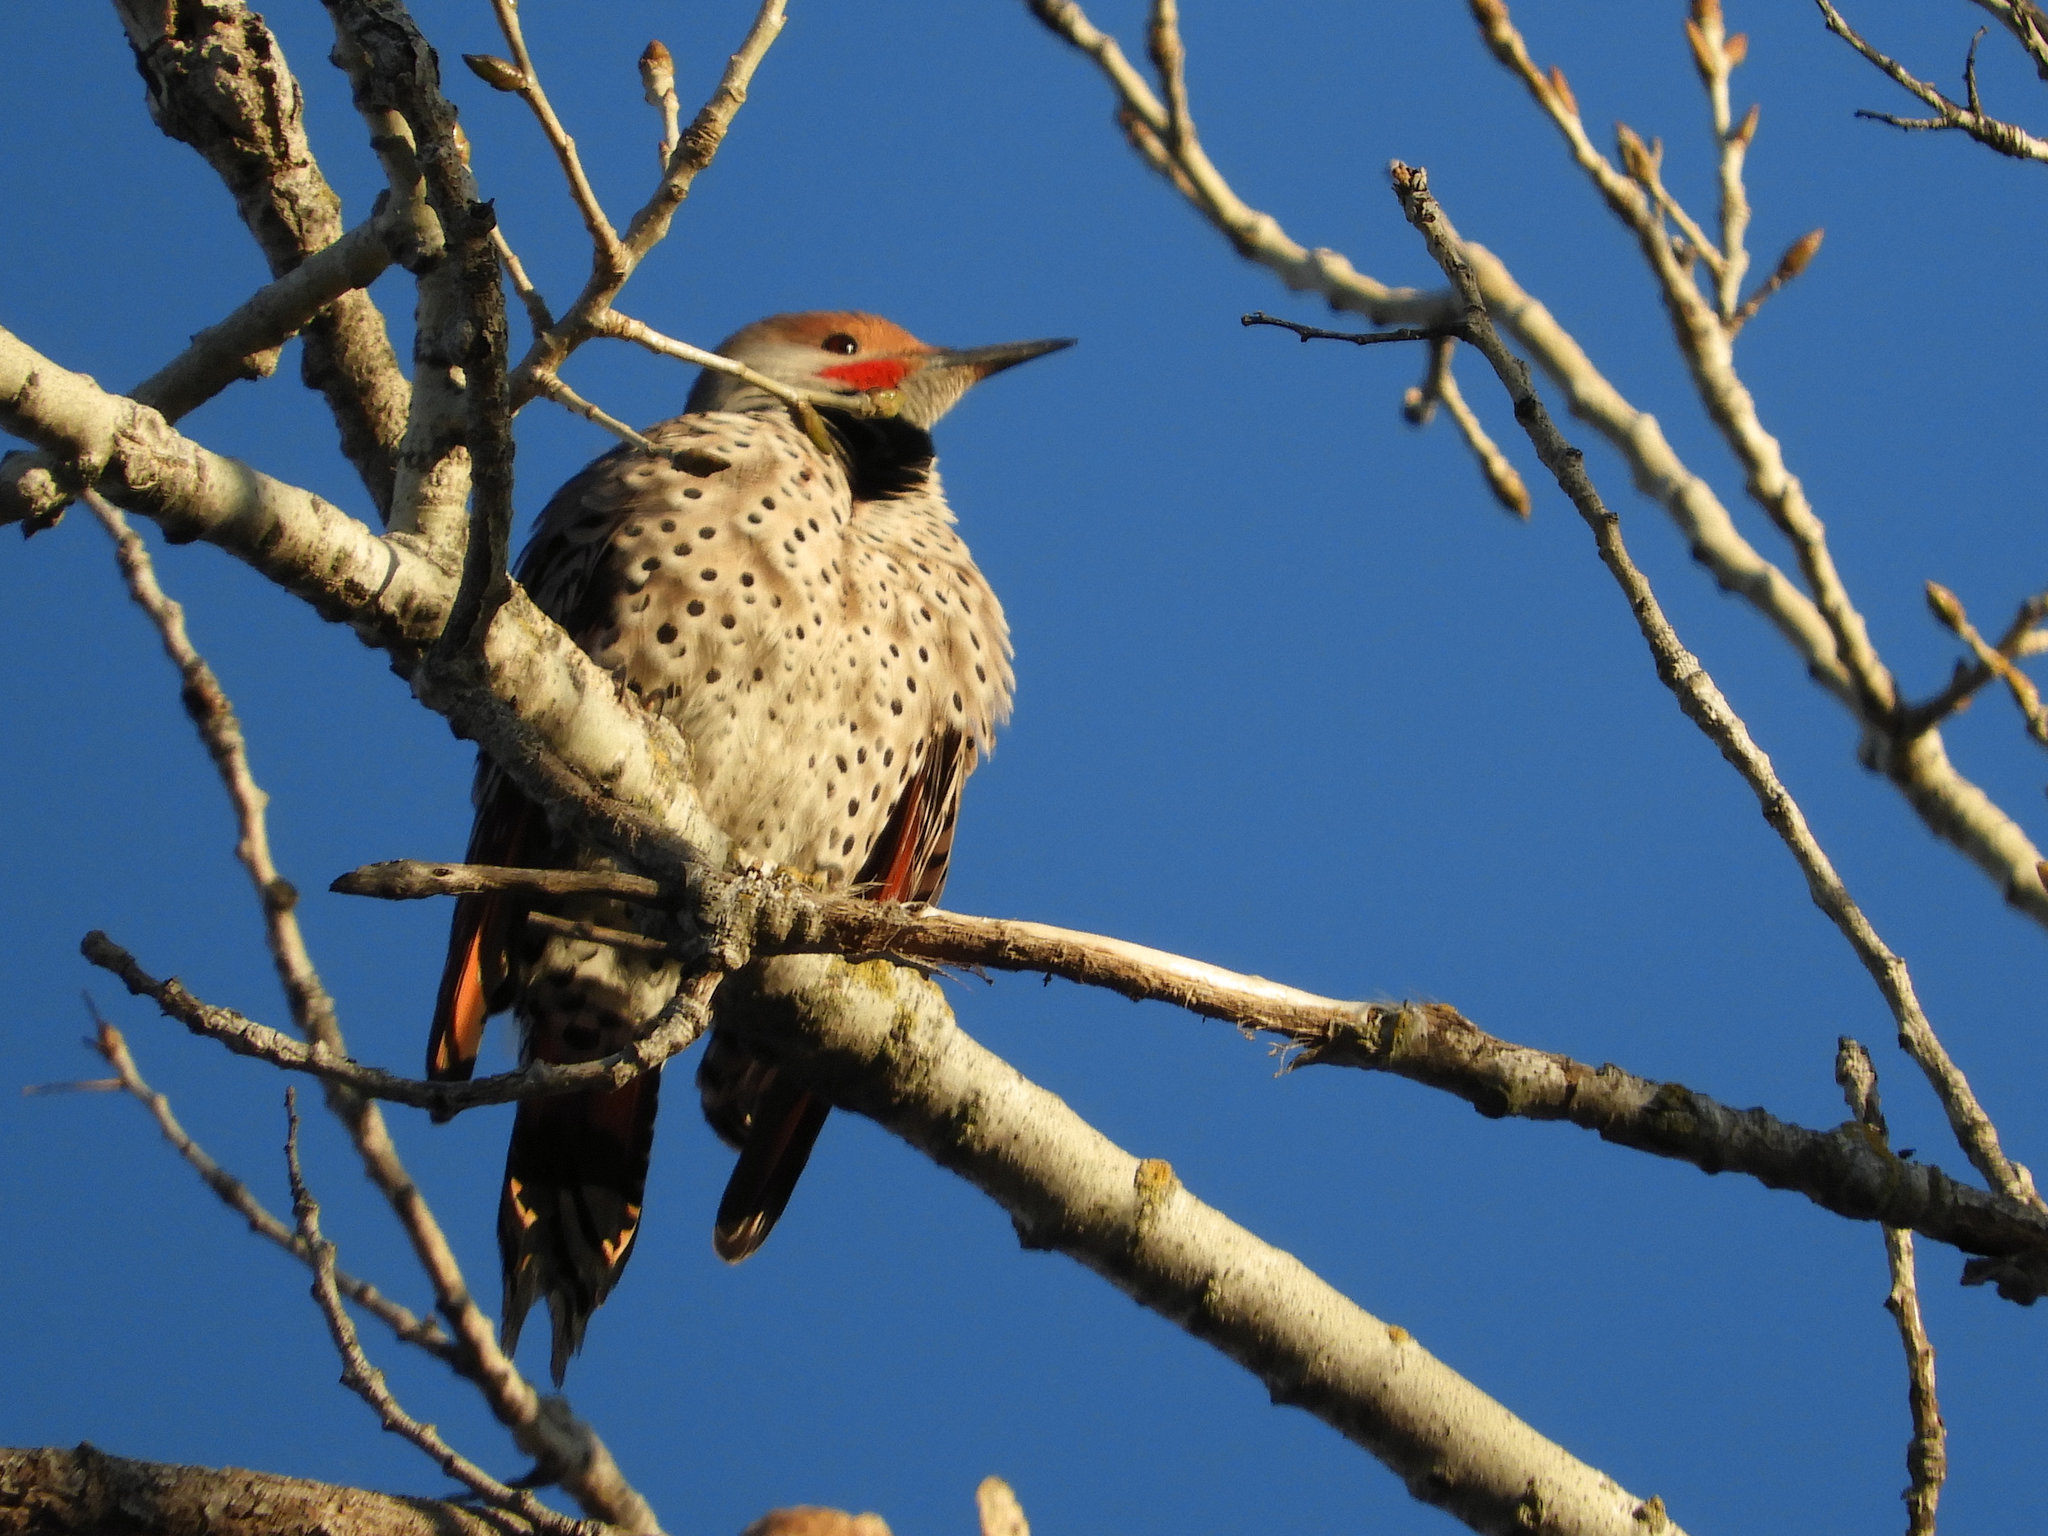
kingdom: Animalia
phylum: Chordata
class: Aves
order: Piciformes
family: Picidae
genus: Colaptes
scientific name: Colaptes auratus
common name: Northern flicker
